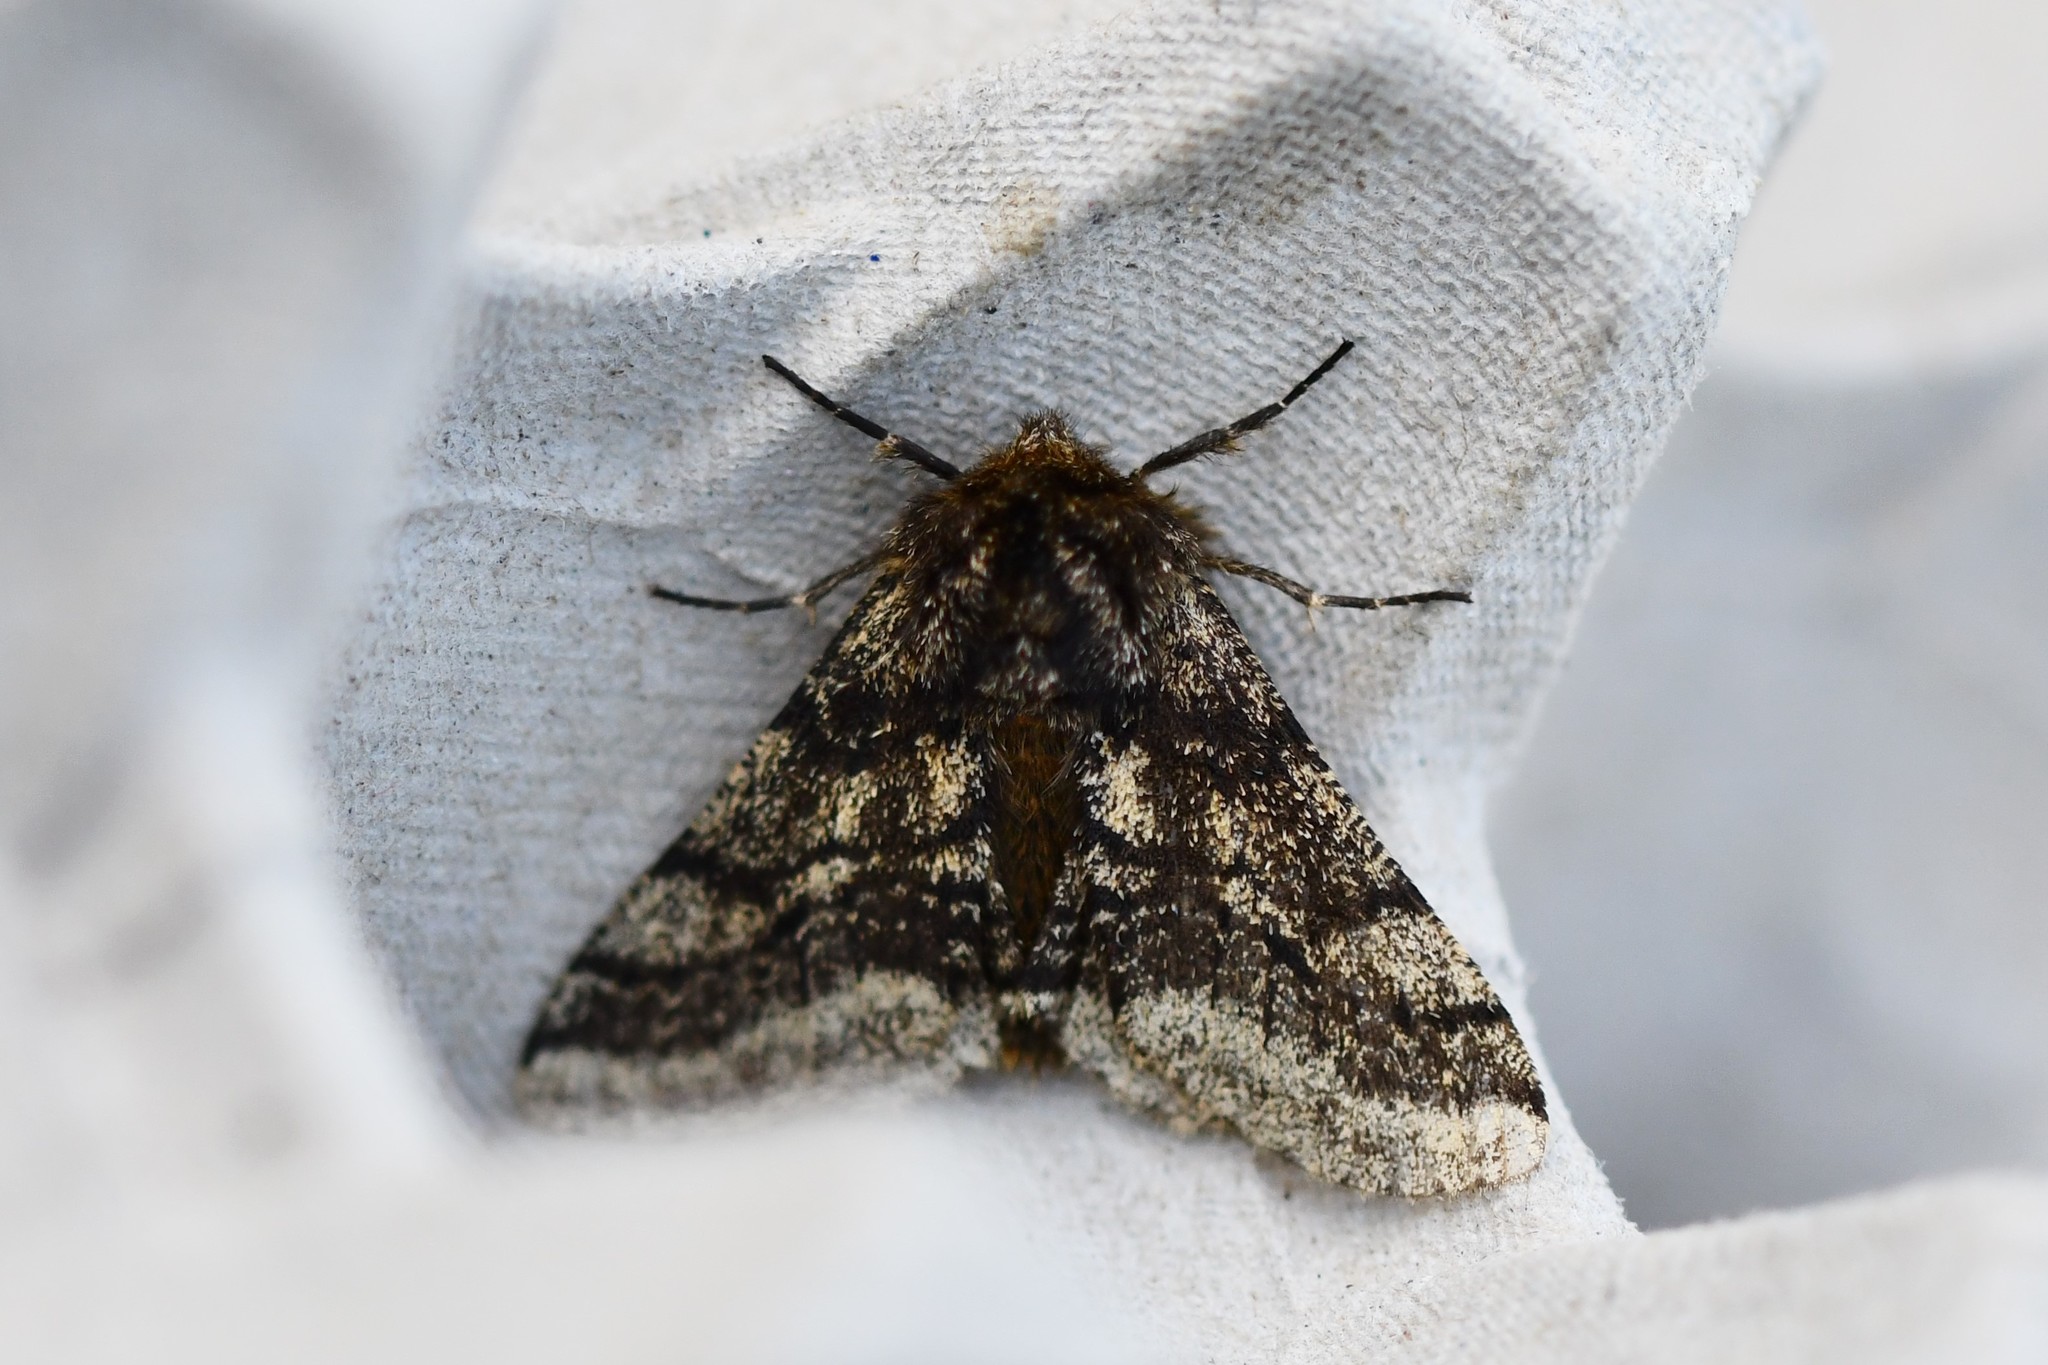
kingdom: Animalia
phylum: Arthropoda
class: Insecta
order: Lepidoptera
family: Geometridae
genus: Lycia
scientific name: Lycia hirtaria
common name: Brindled beauty
